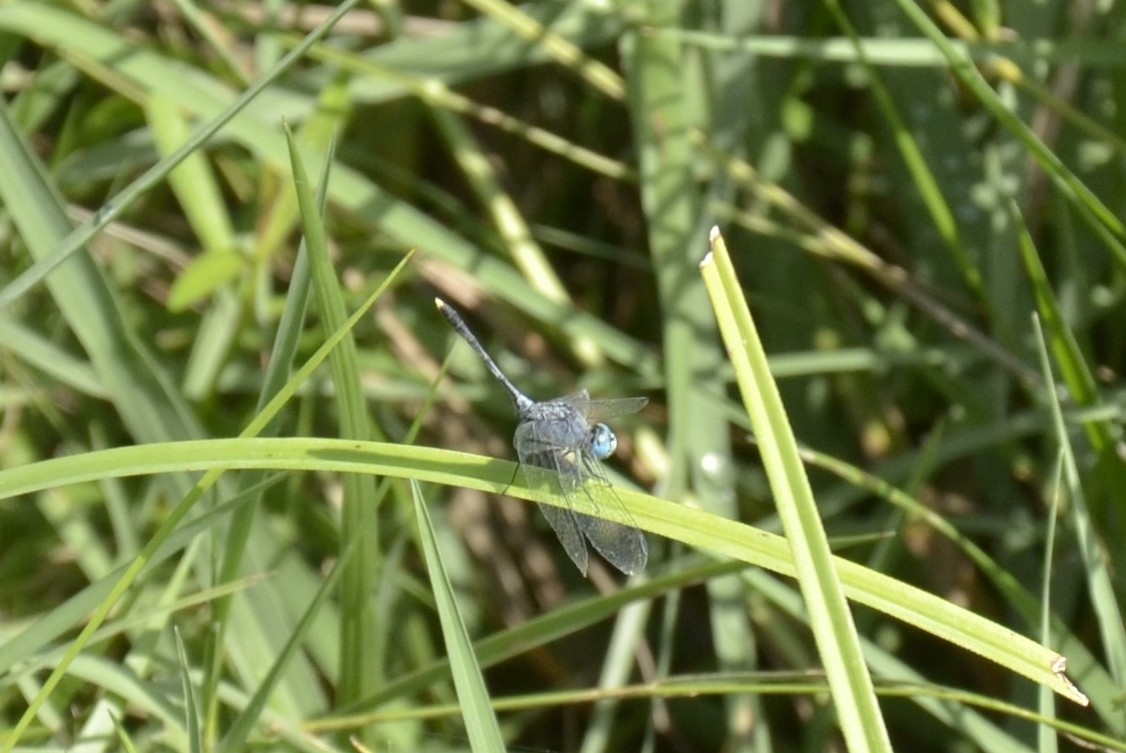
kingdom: Animalia
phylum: Arthropoda
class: Insecta
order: Odonata
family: Libellulidae
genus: Diplacodes
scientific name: Diplacodes trivialis
